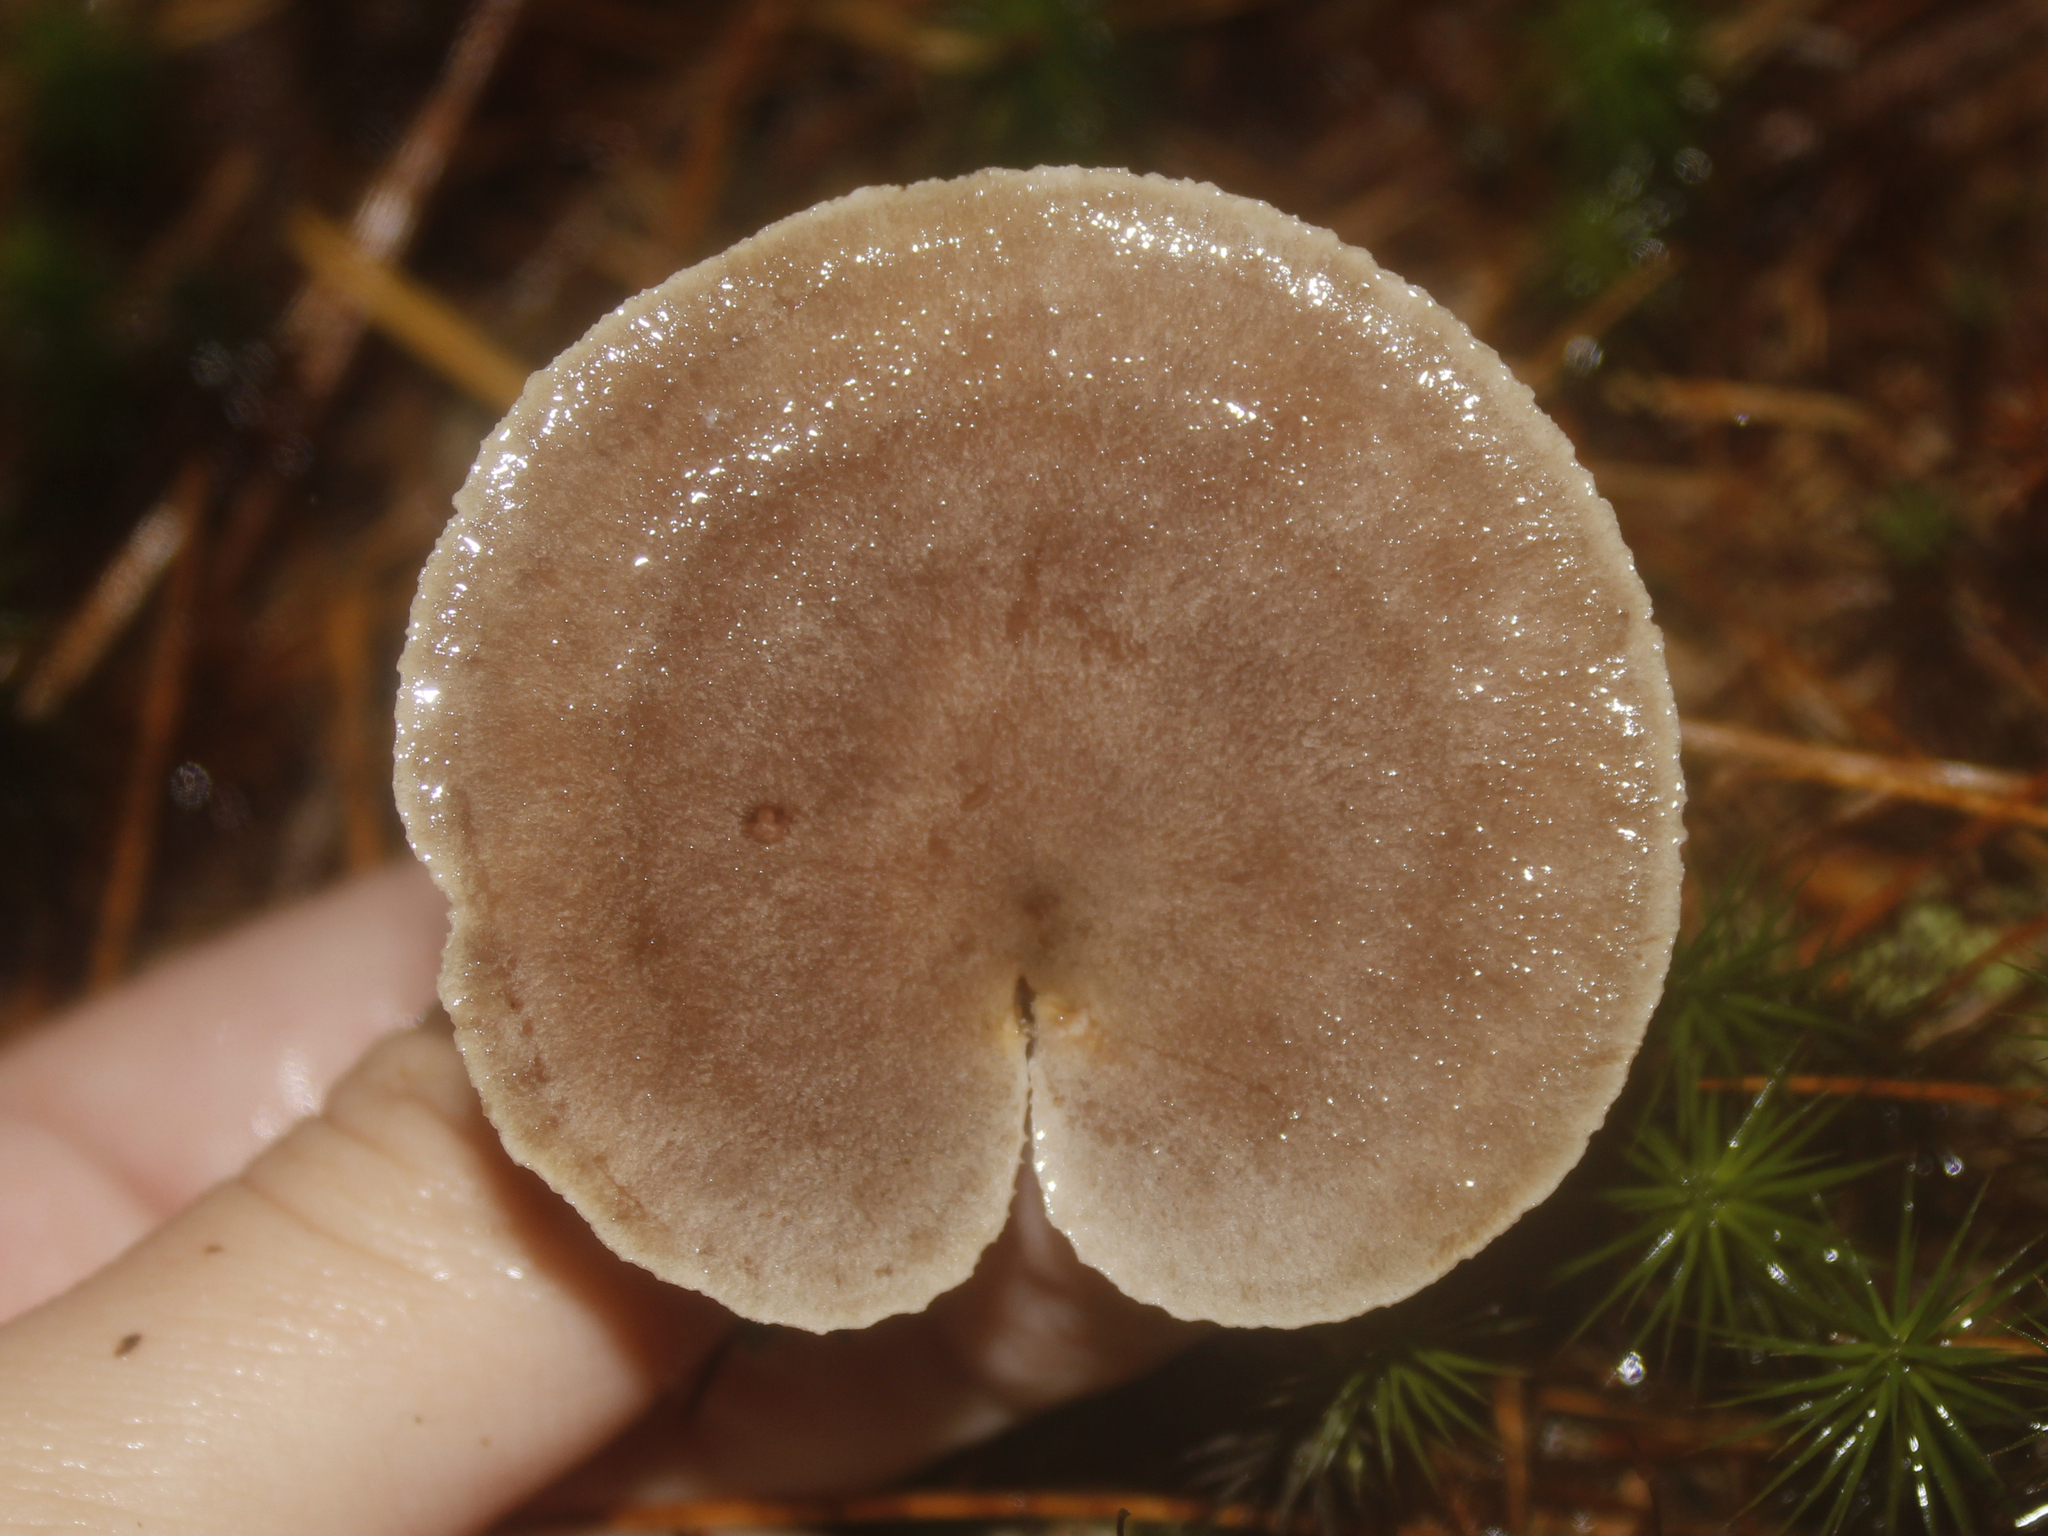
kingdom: Fungi
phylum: Basidiomycota
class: Agaricomycetes
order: Russulales
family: Russulaceae
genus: Lactarius
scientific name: Lactarius mammosus
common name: Pap milkcap
